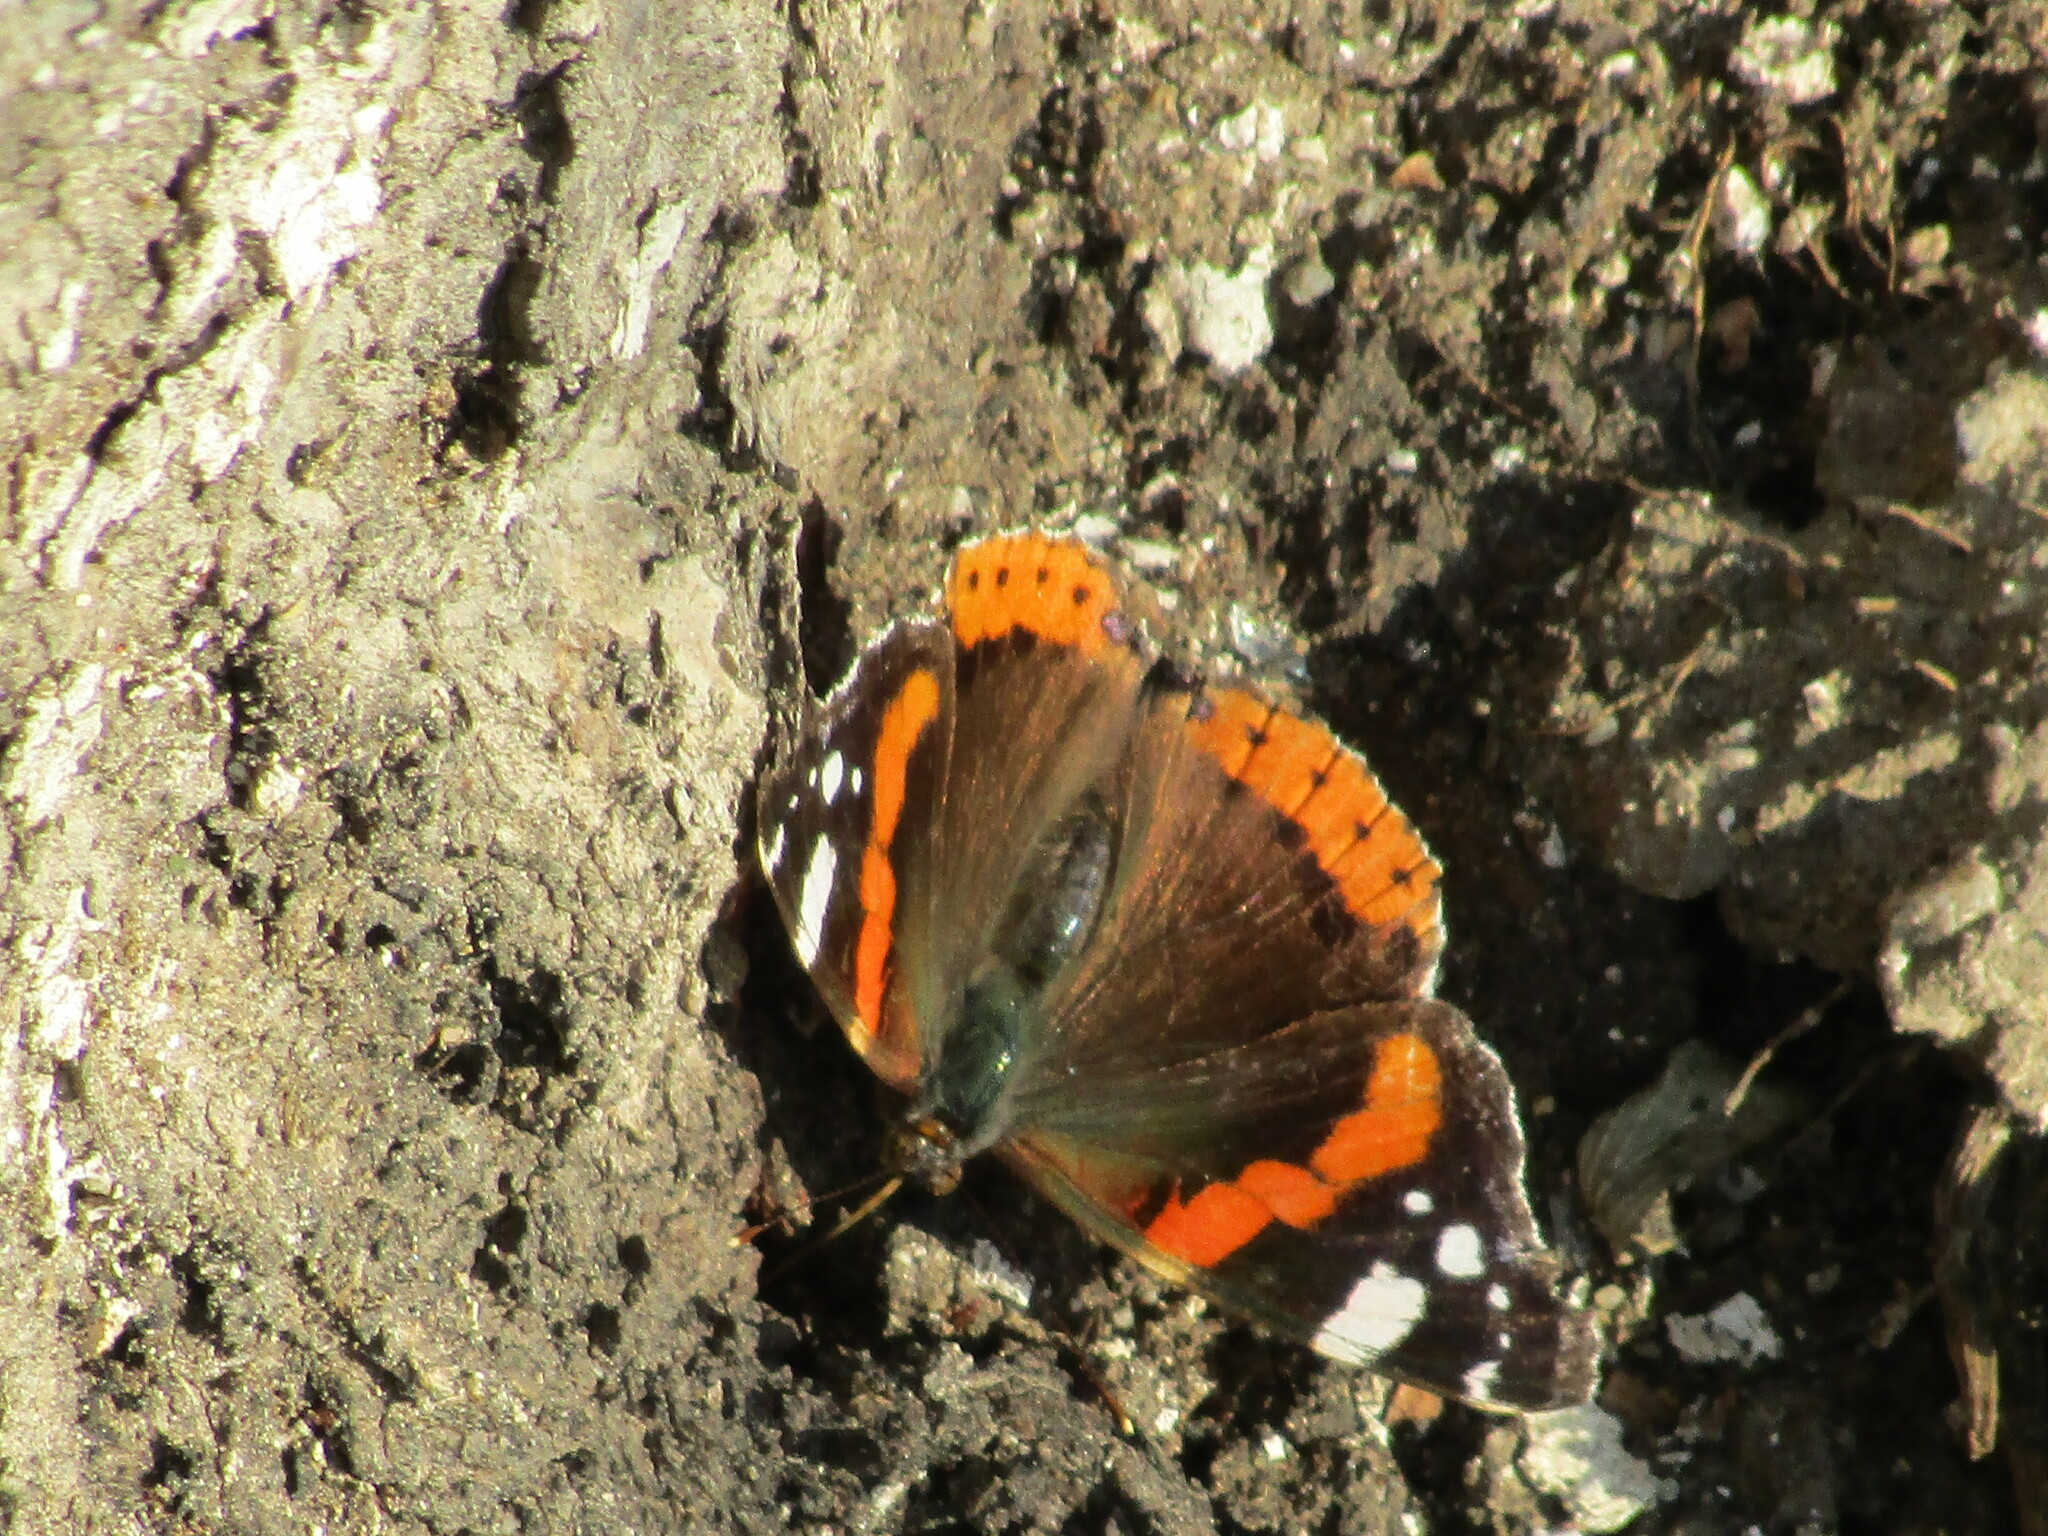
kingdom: Animalia
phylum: Arthropoda
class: Insecta
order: Lepidoptera
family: Nymphalidae
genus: Vanessa
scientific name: Vanessa atalanta
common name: Red admiral
